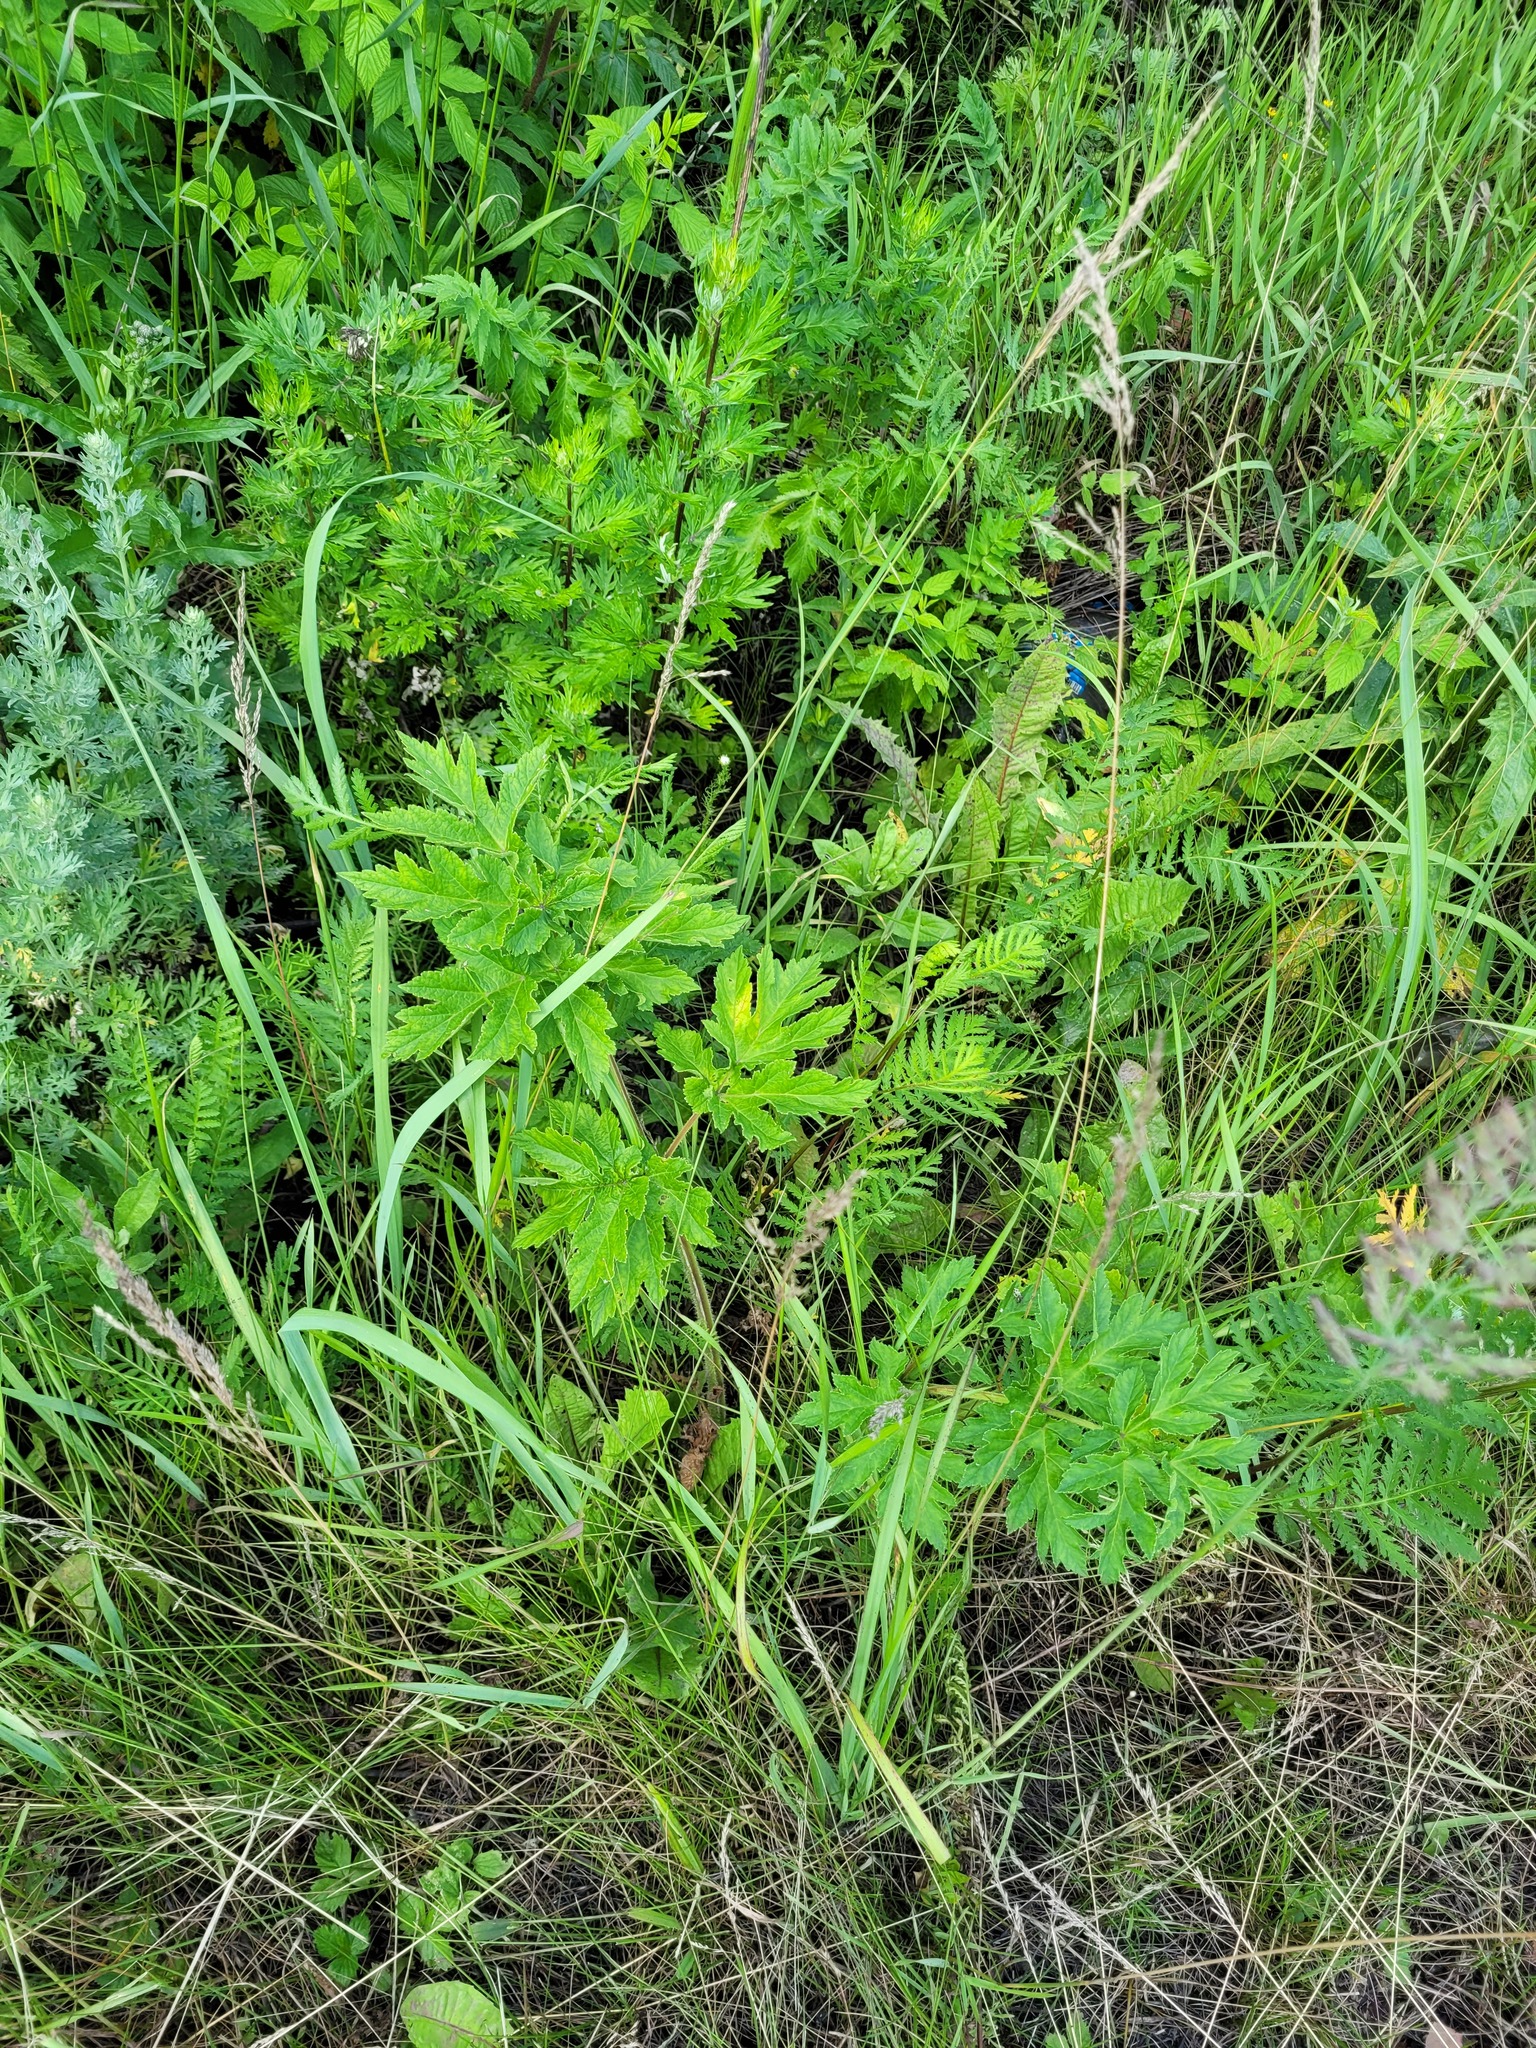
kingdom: Plantae
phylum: Tracheophyta
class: Magnoliopsida
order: Apiales
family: Apiaceae
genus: Heracleum
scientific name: Heracleum sphondylium
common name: Hogweed
